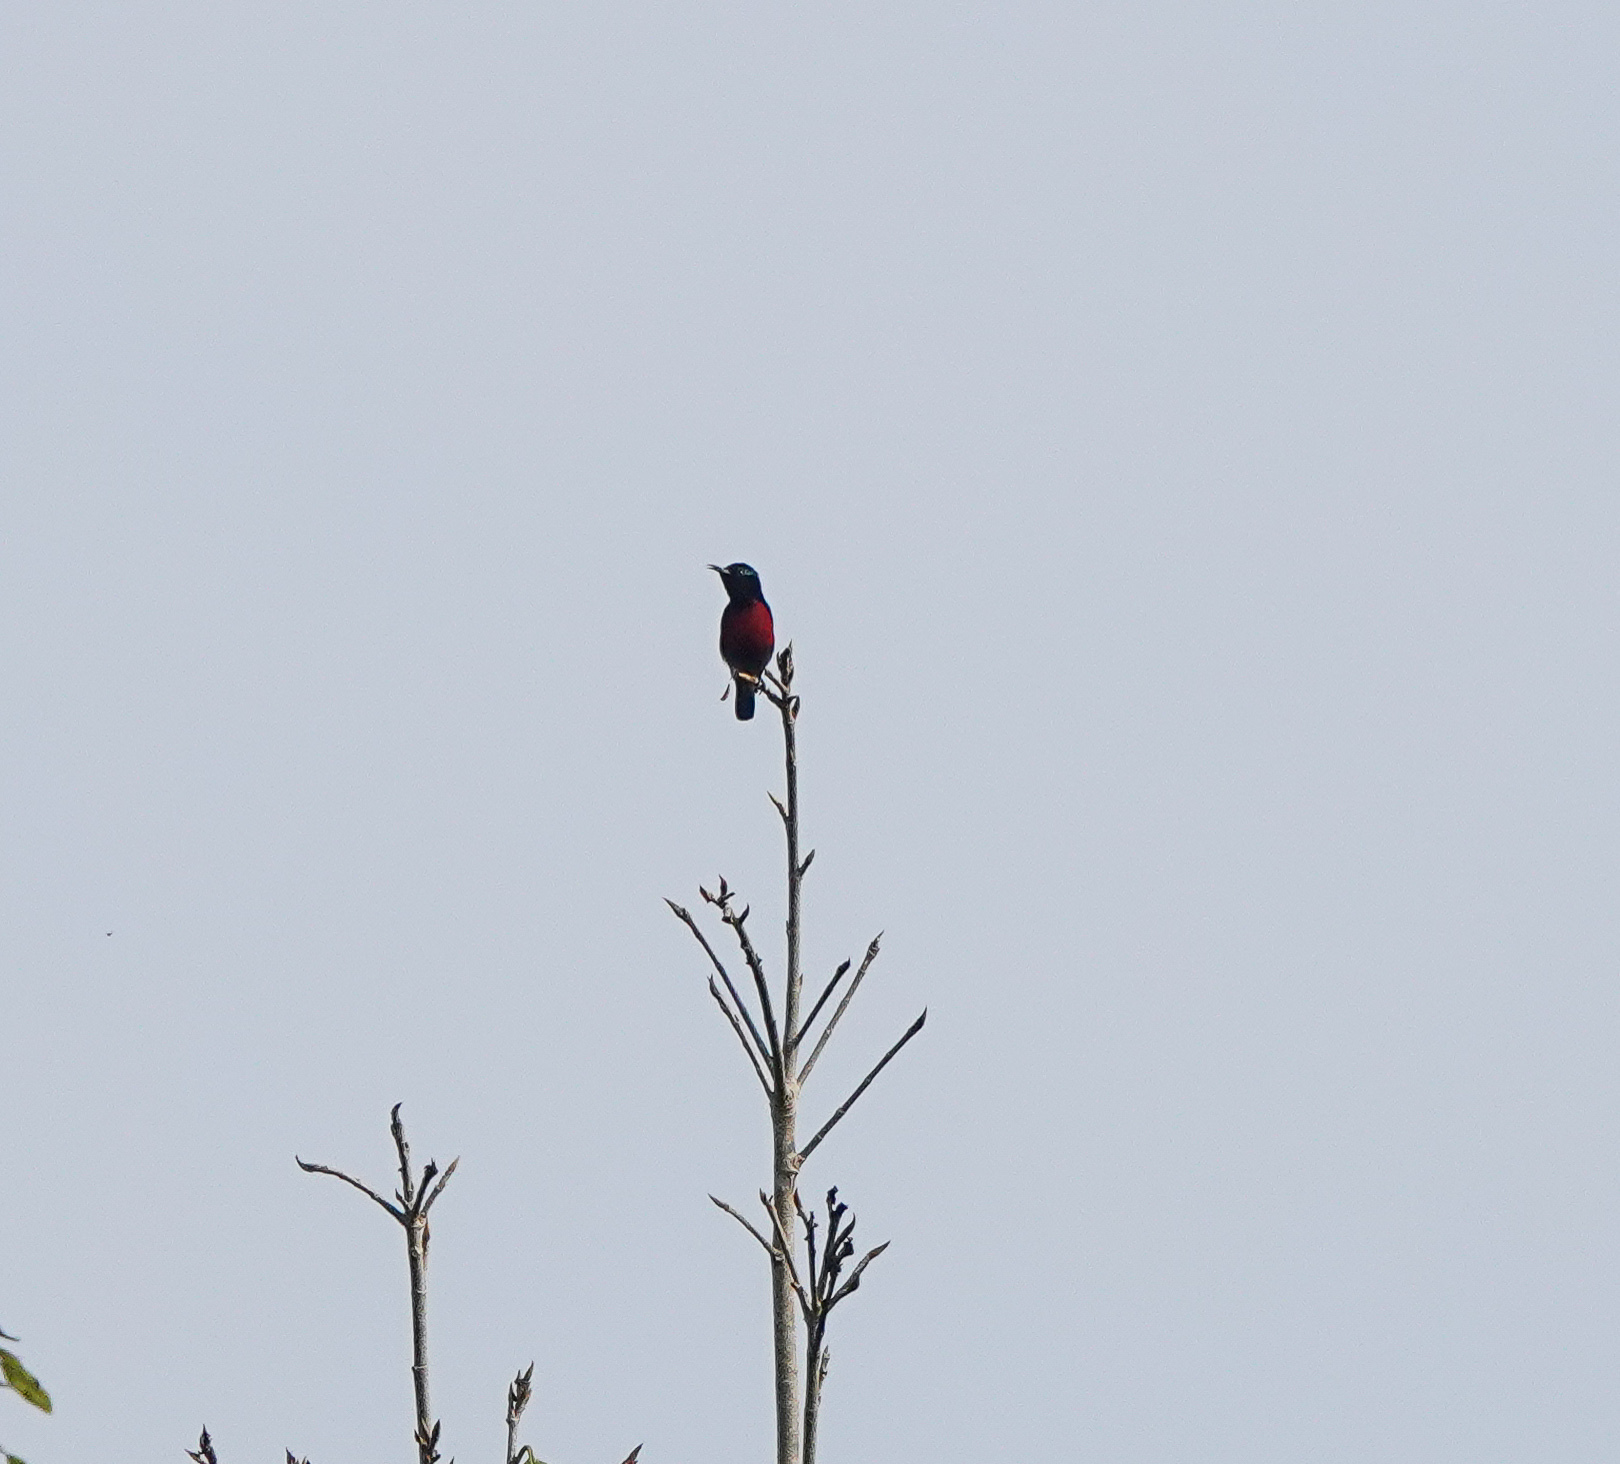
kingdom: Animalia
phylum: Chordata
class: Aves
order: Passeriformes
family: Nectariniidae
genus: Leptocoma
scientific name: Leptocoma brasiliana
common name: Van hasselt's sunbird
